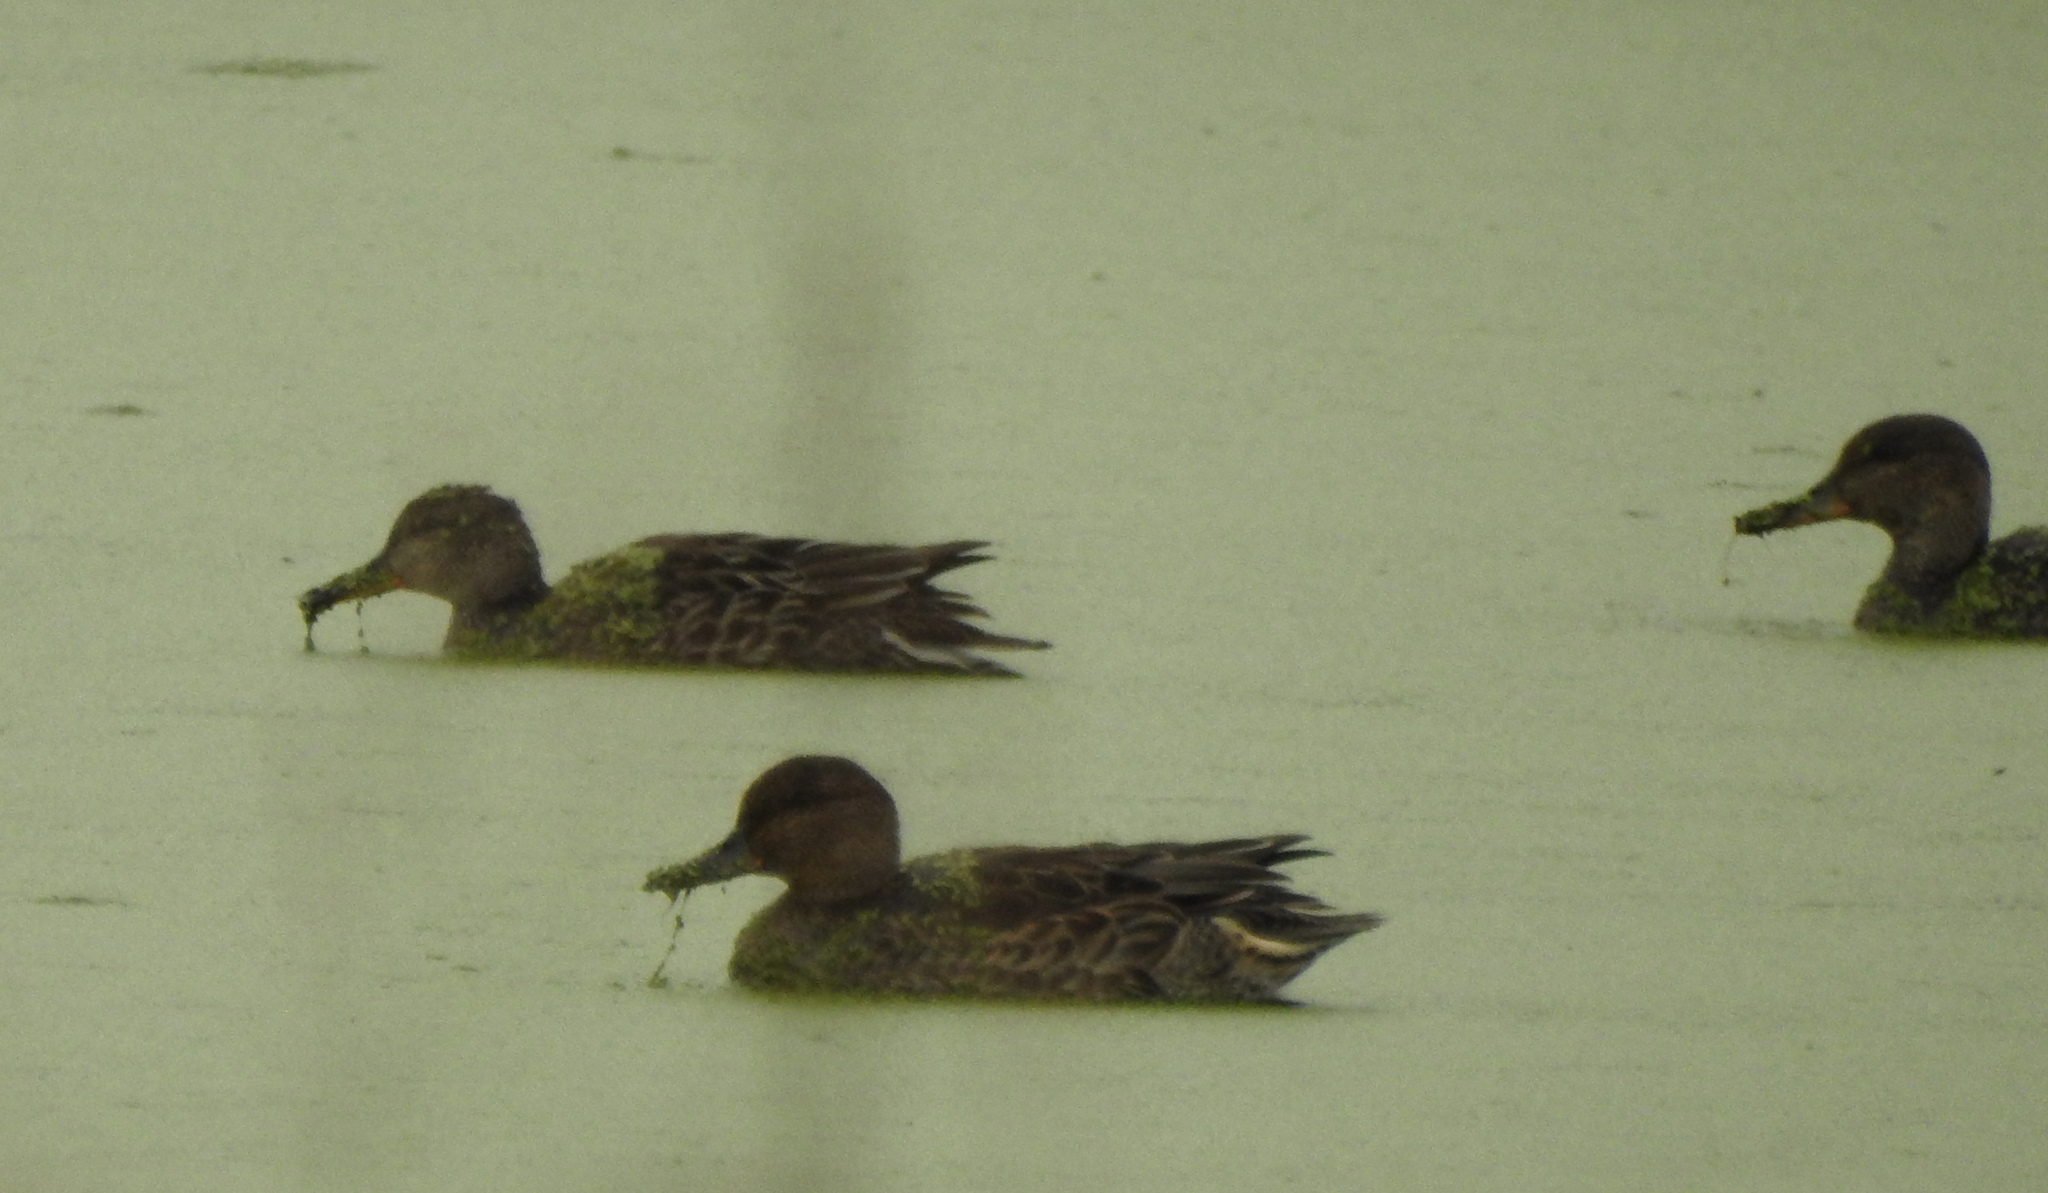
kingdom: Animalia
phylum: Chordata
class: Aves
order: Anseriformes
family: Anatidae
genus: Anas
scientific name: Anas crecca
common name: Eurasian teal
